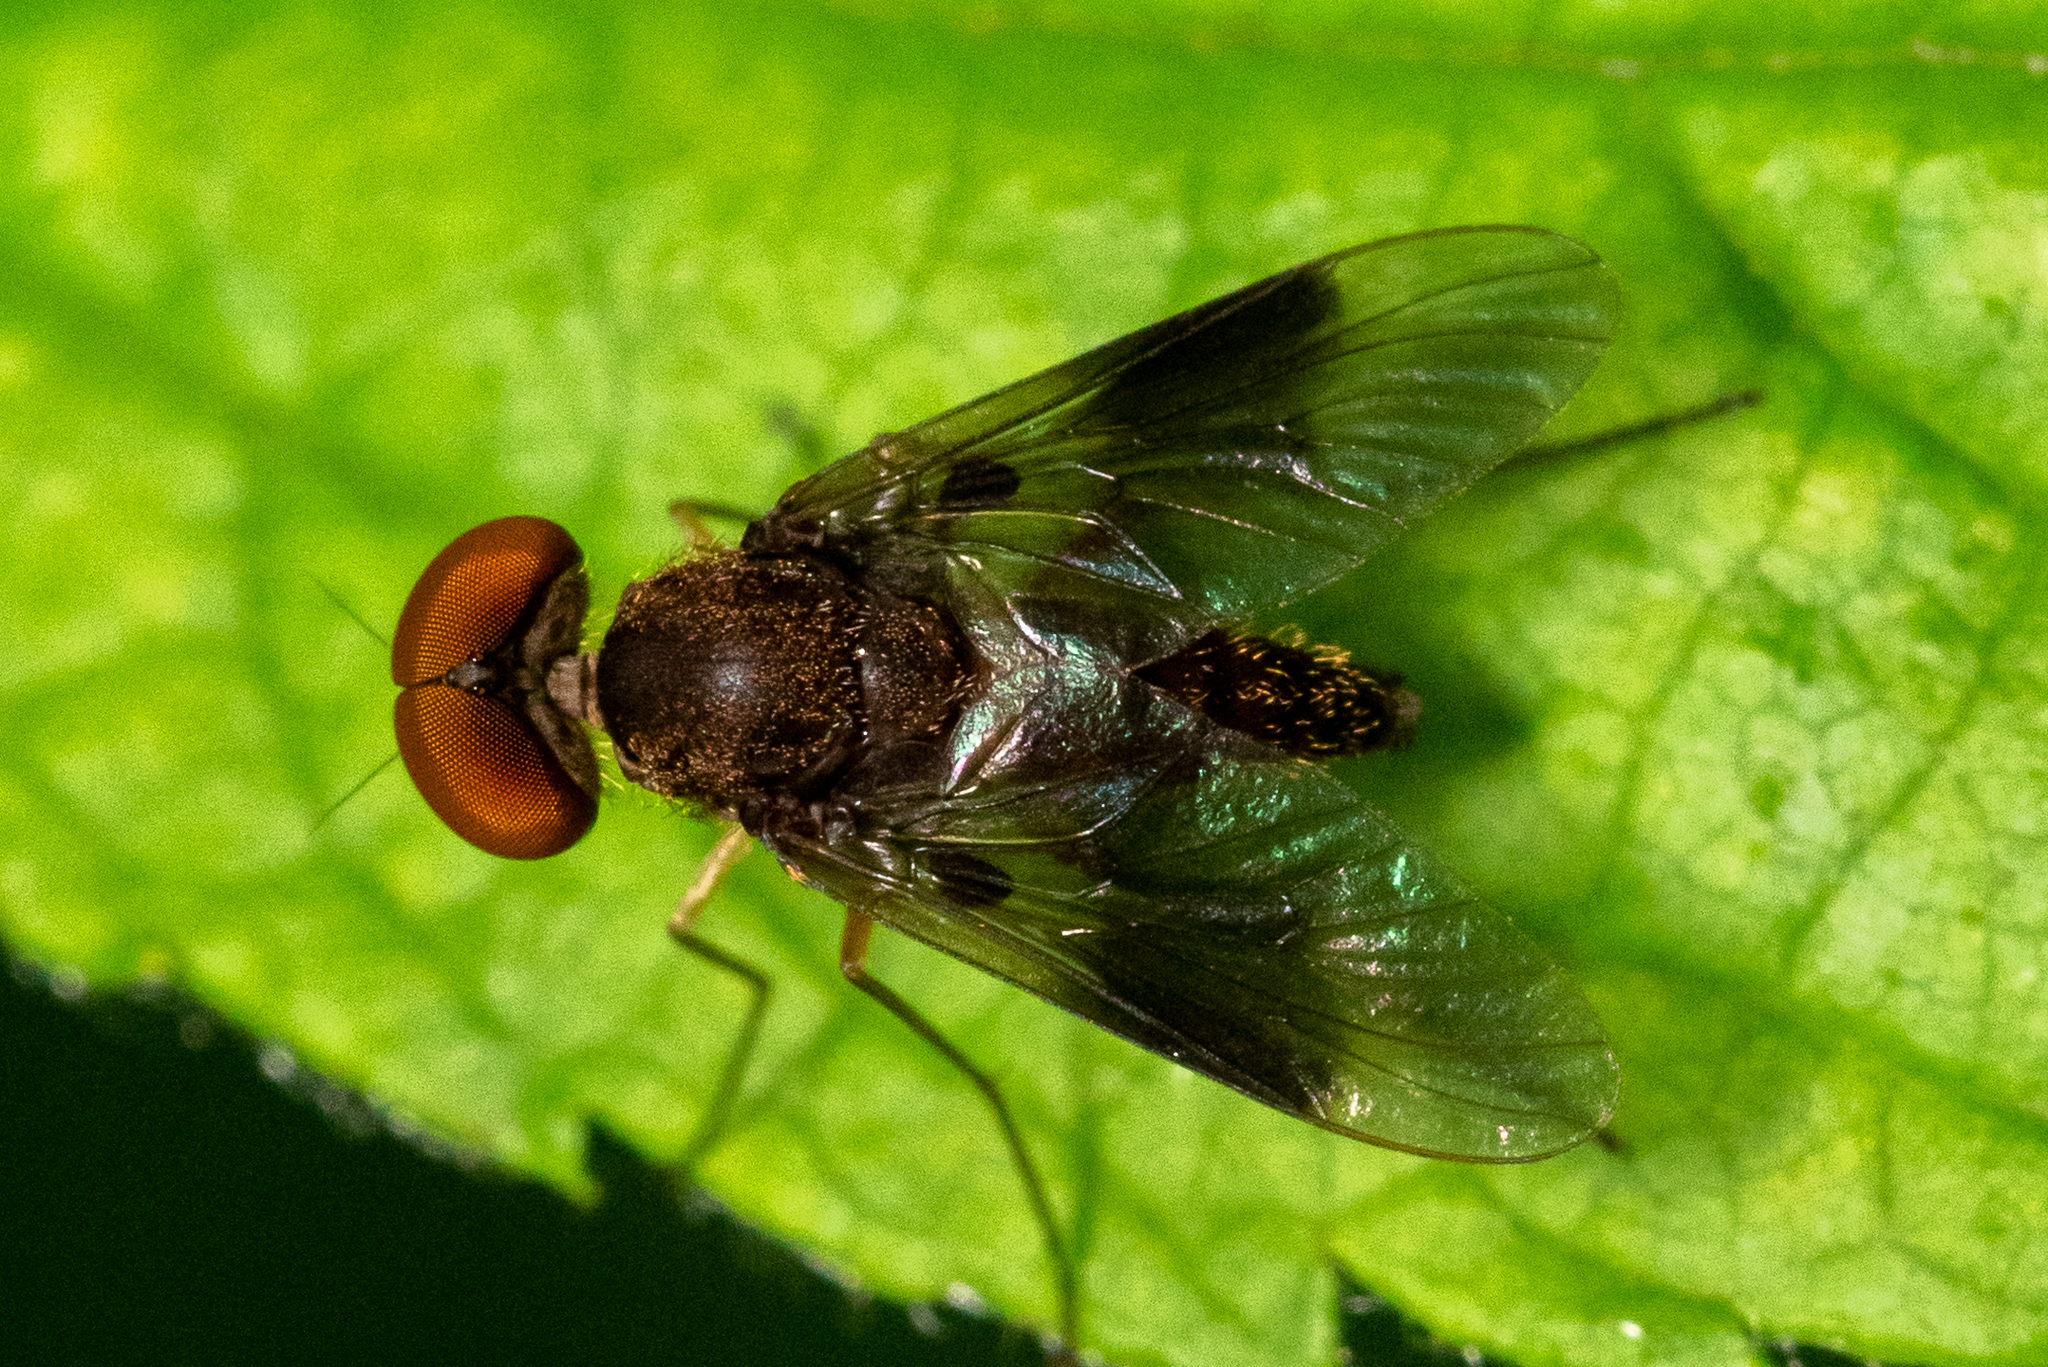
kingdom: Animalia
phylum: Arthropoda
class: Insecta
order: Diptera
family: Rhagionidae
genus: Chrysopilus
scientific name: Chrysopilus quadratus
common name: Quadrate snipe fly
